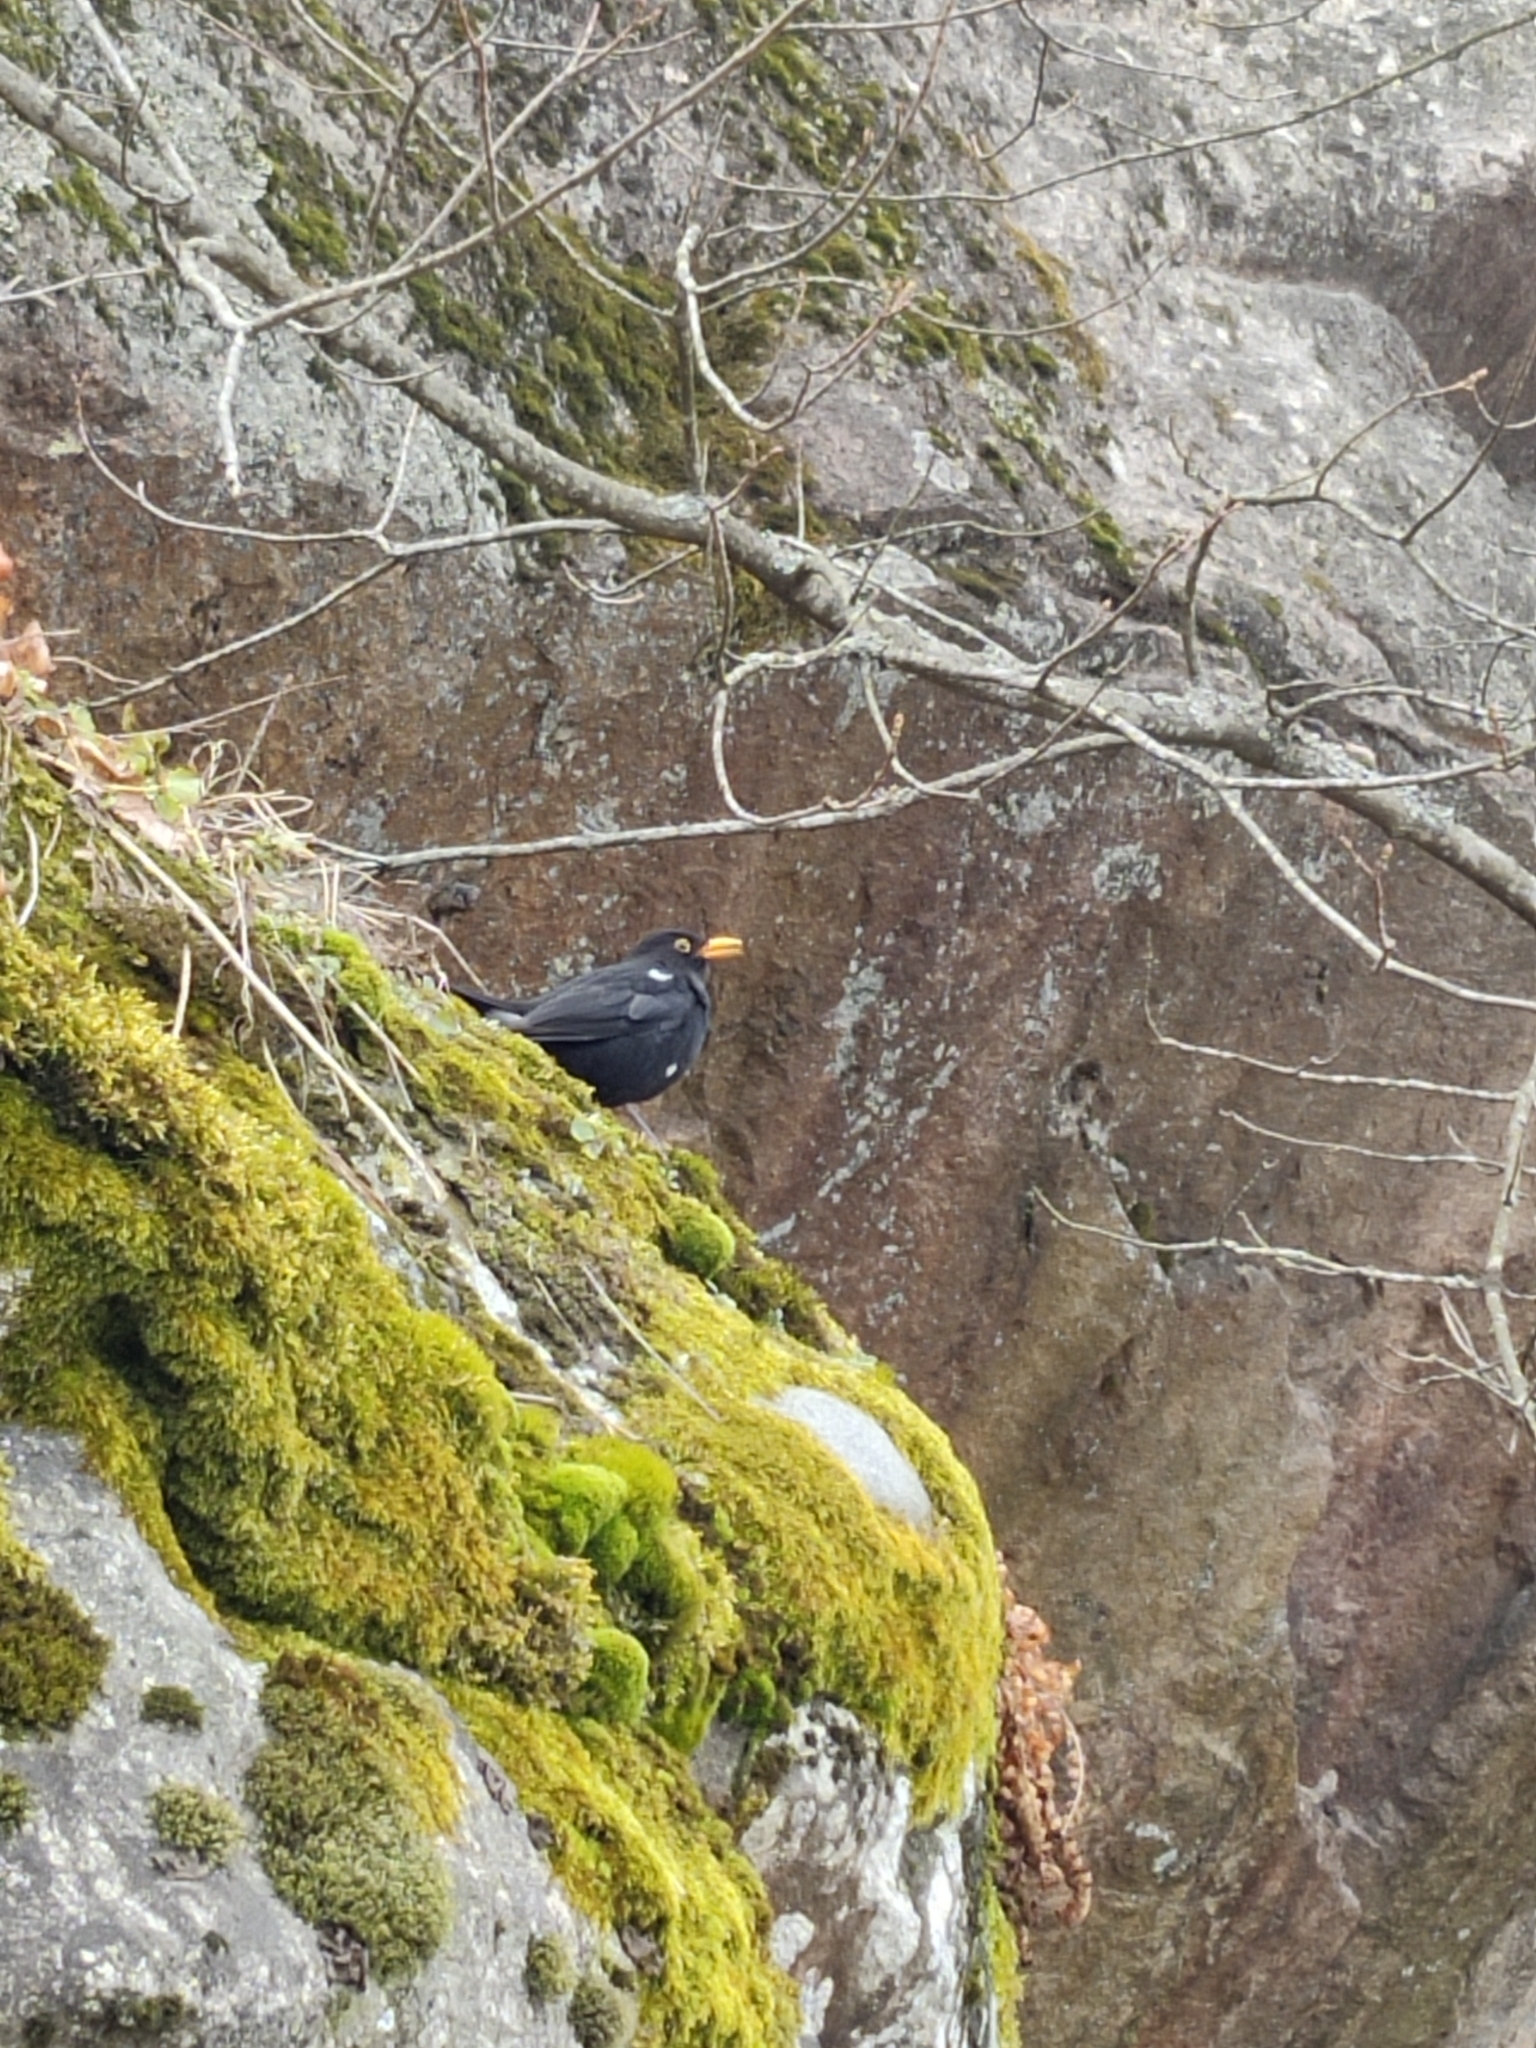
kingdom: Animalia
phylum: Chordata
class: Aves
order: Passeriformes
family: Turdidae
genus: Turdus
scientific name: Turdus merula
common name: Common blackbird
